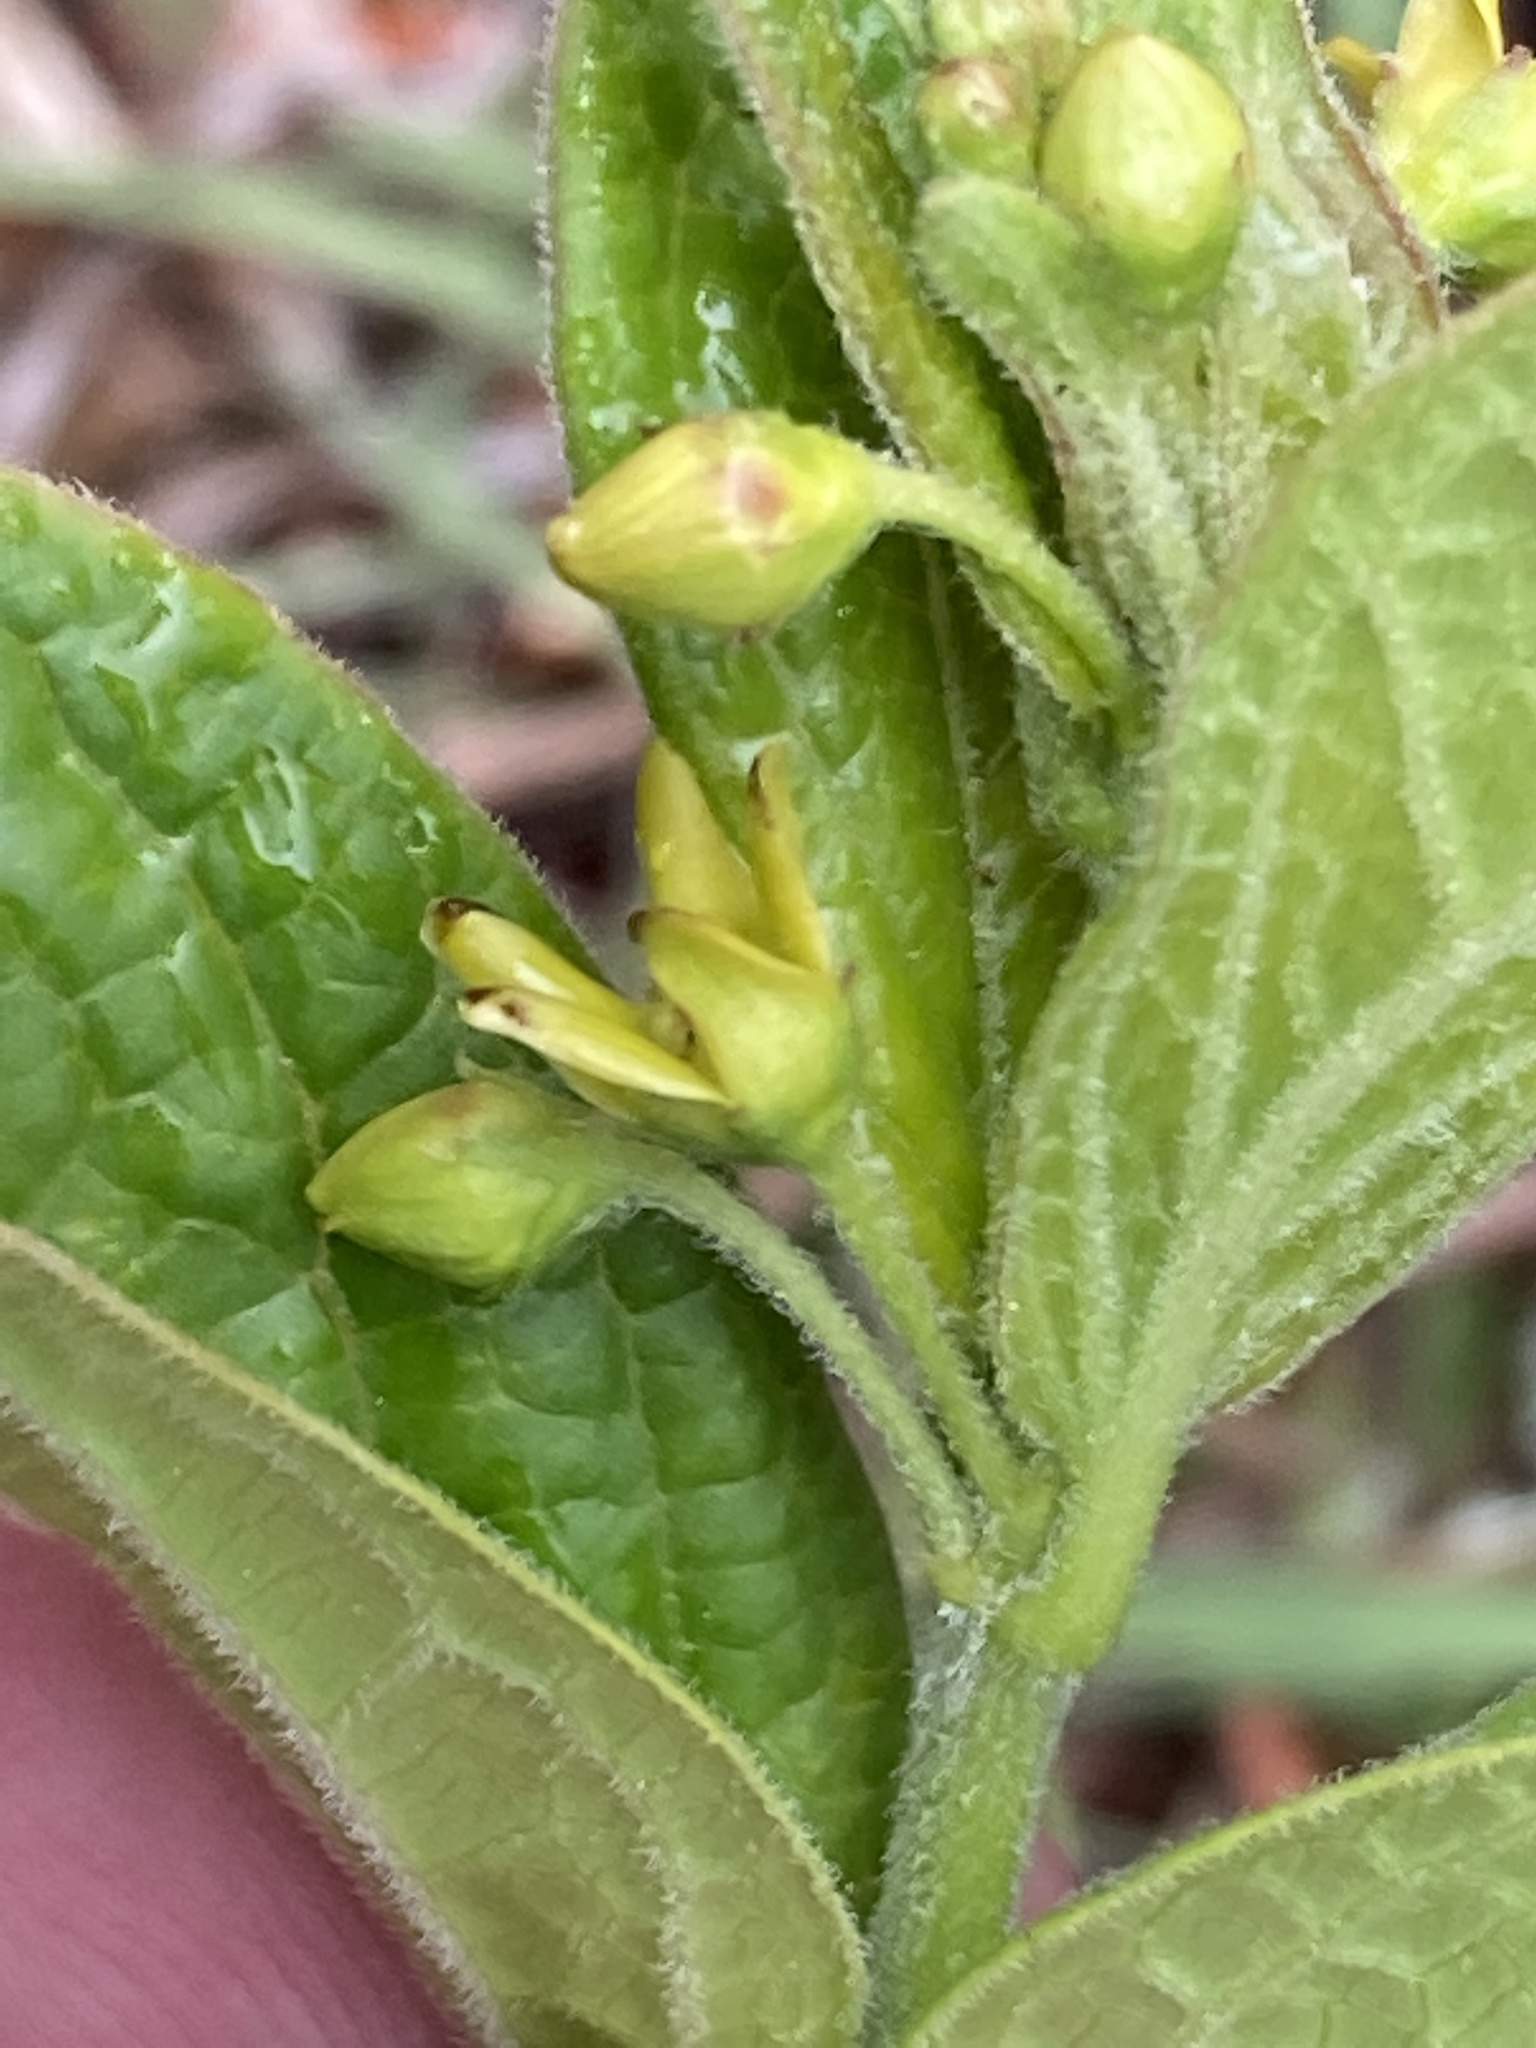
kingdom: Plantae
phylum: Tracheophyta
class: Magnoliopsida
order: Gentianales
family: Apocynaceae
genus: Vincetoxicum
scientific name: Vincetoxicum hirundinaria
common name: White swallowwort
